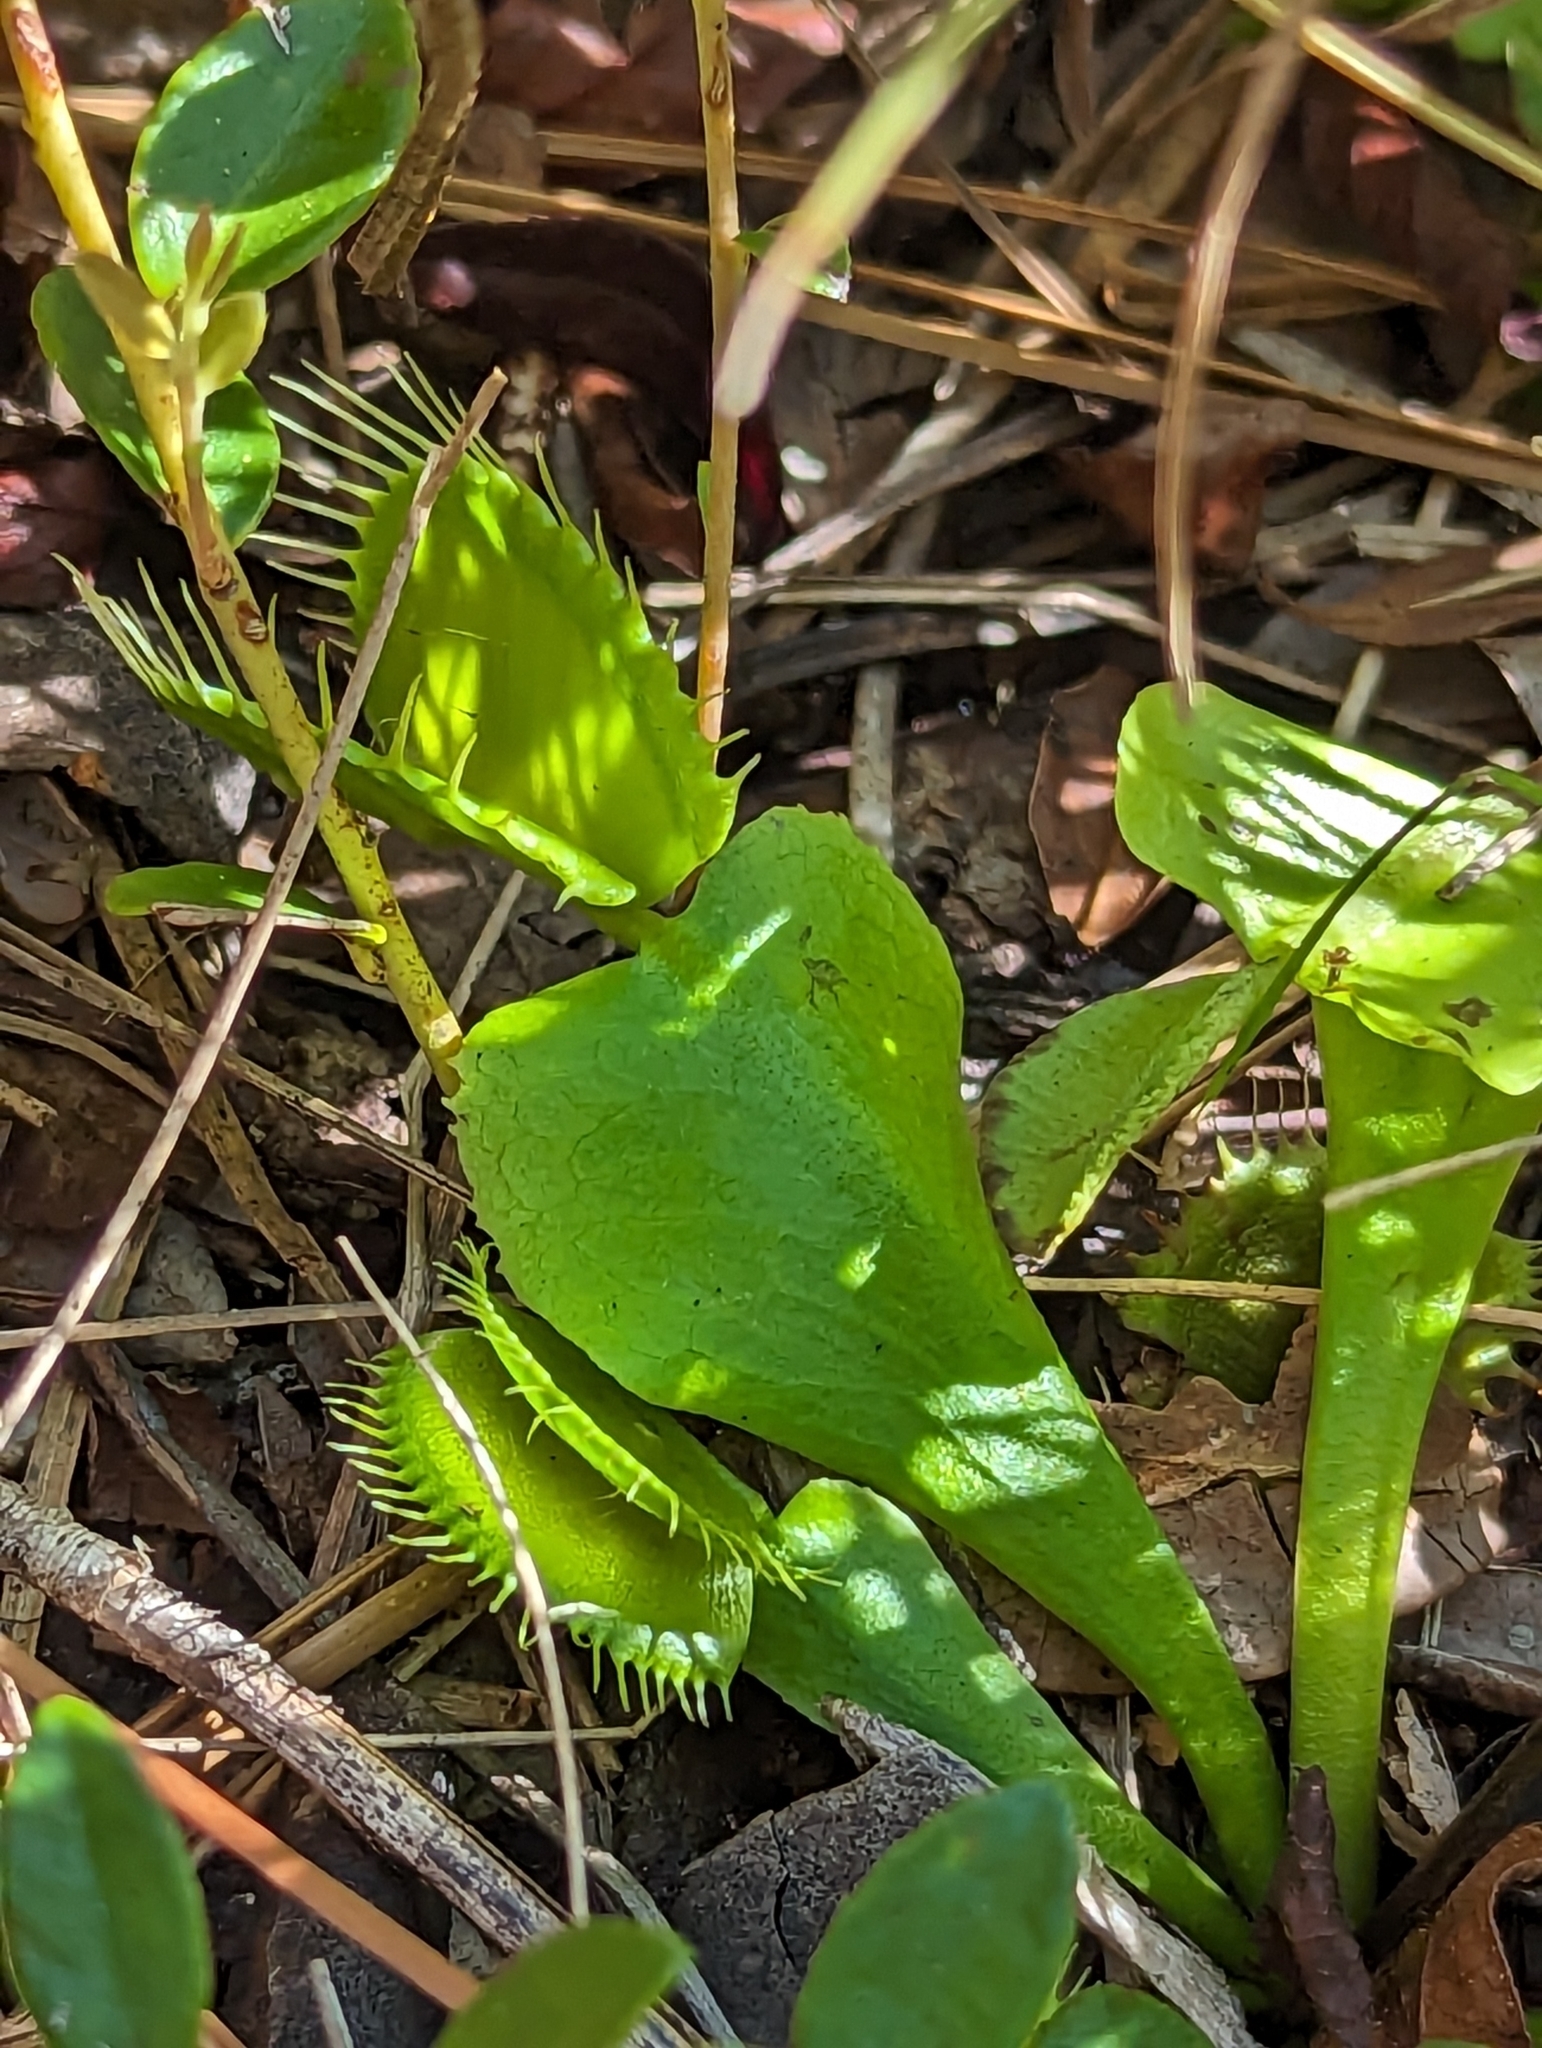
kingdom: Plantae
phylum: Tracheophyta
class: Magnoliopsida
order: Caryophyllales
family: Droseraceae
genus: Dionaea
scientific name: Dionaea muscipula
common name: Venus flytrap
